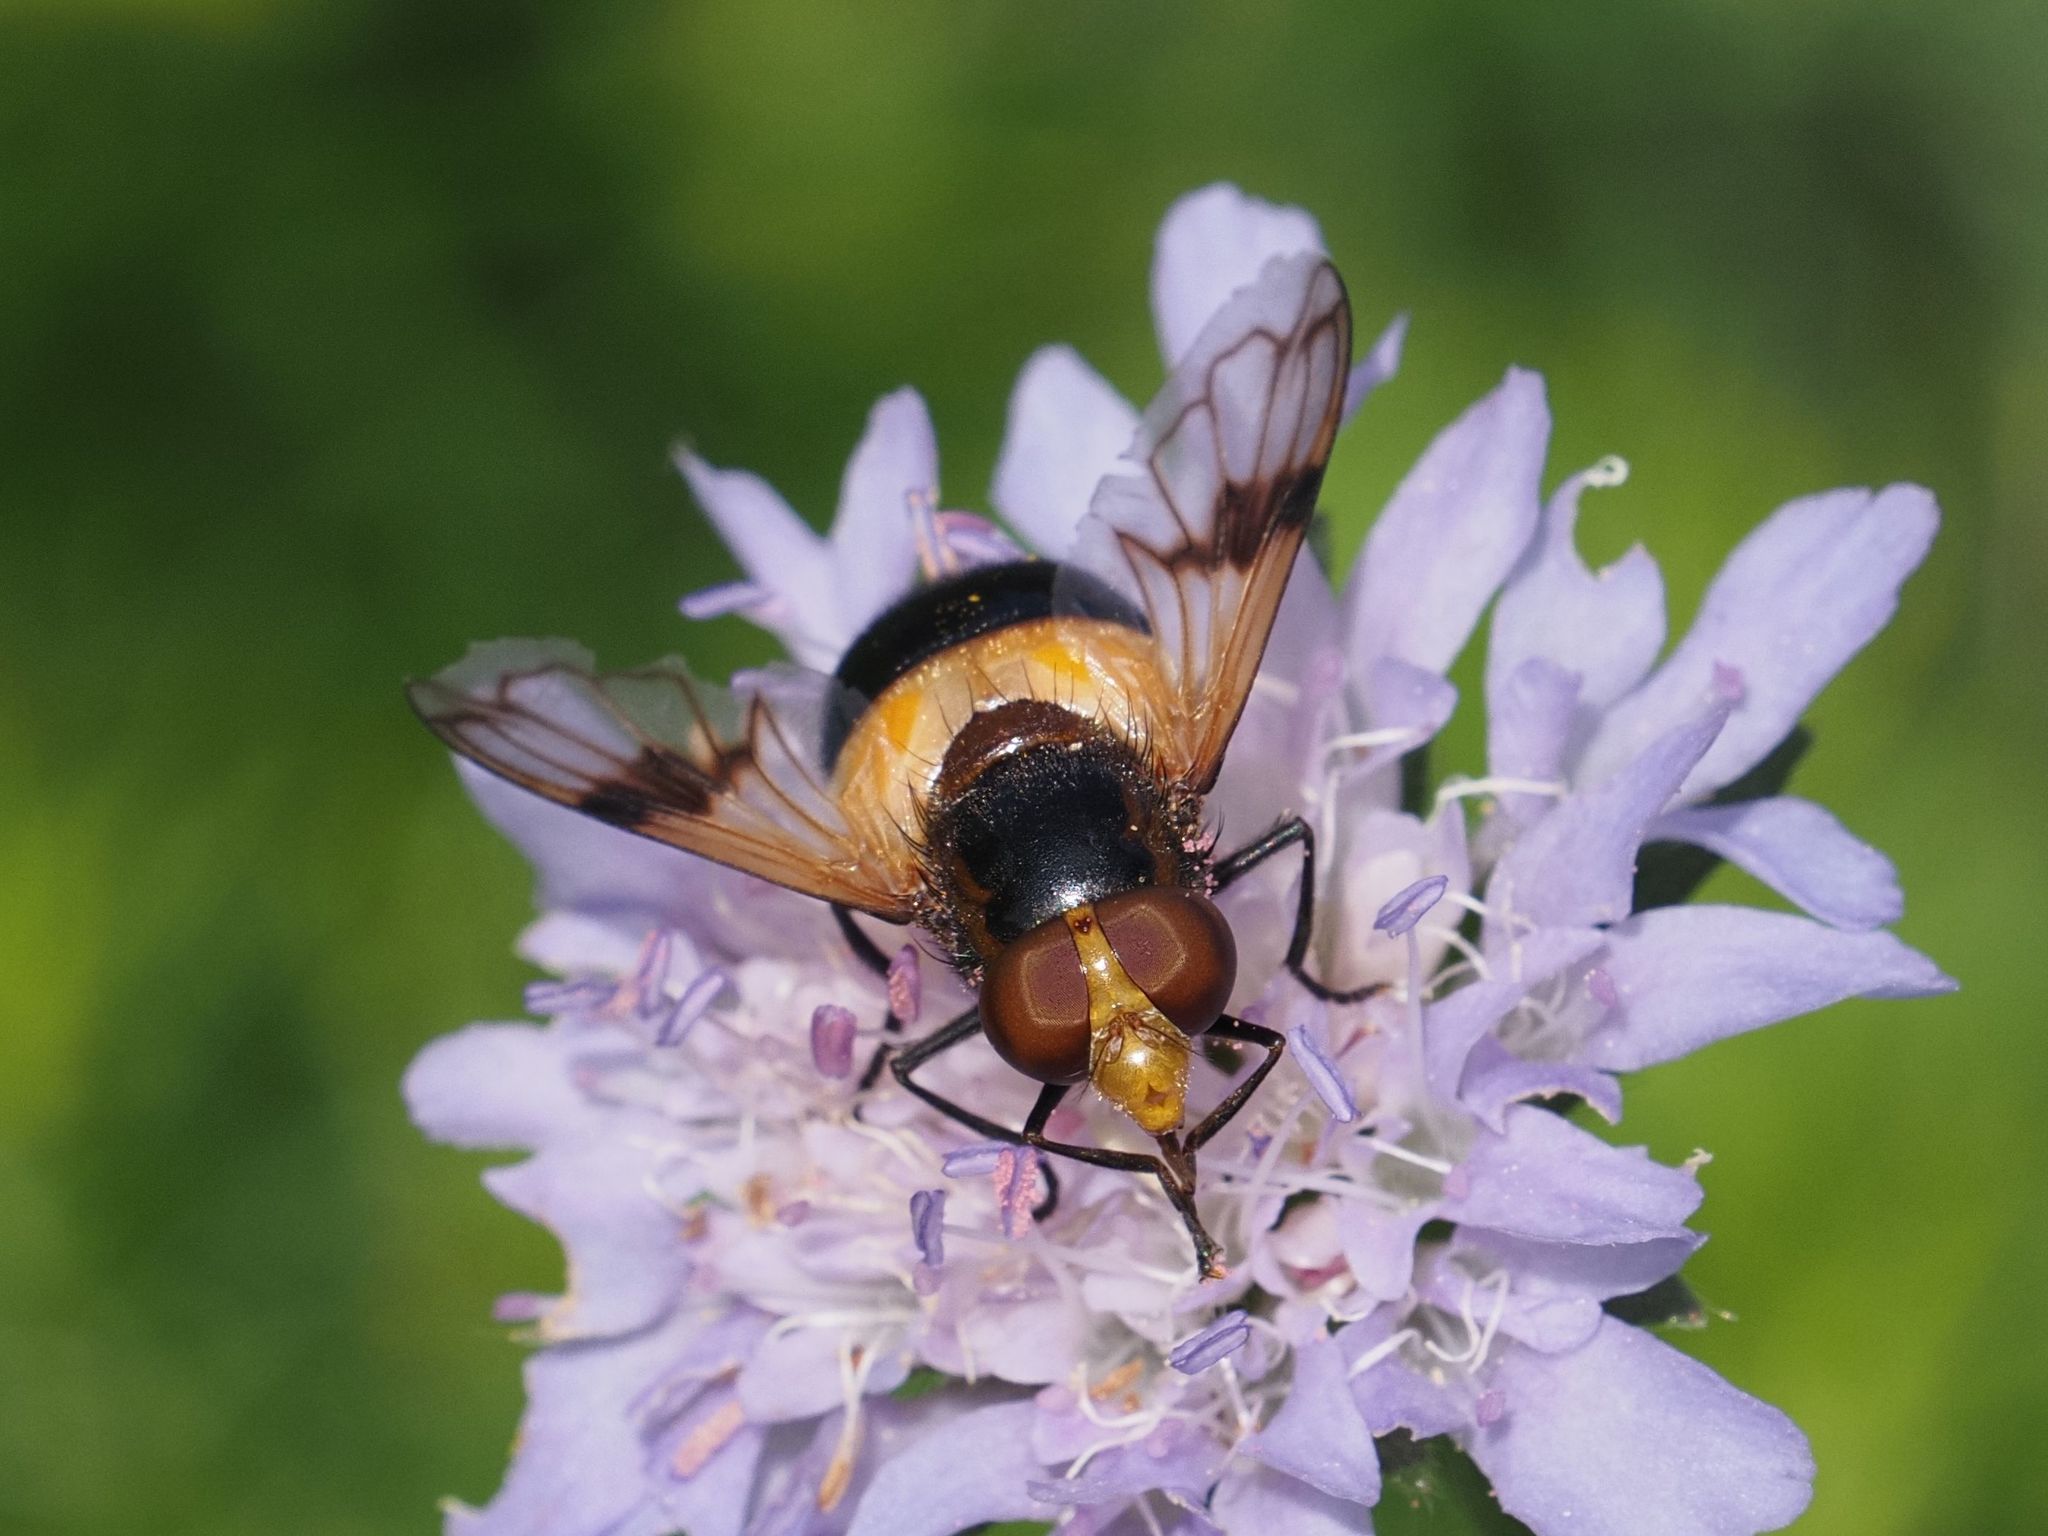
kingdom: Animalia
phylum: Arthropoda
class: Insecta
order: Diptera
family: Syrphidae
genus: Volucella
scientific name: Volucella pellucens
